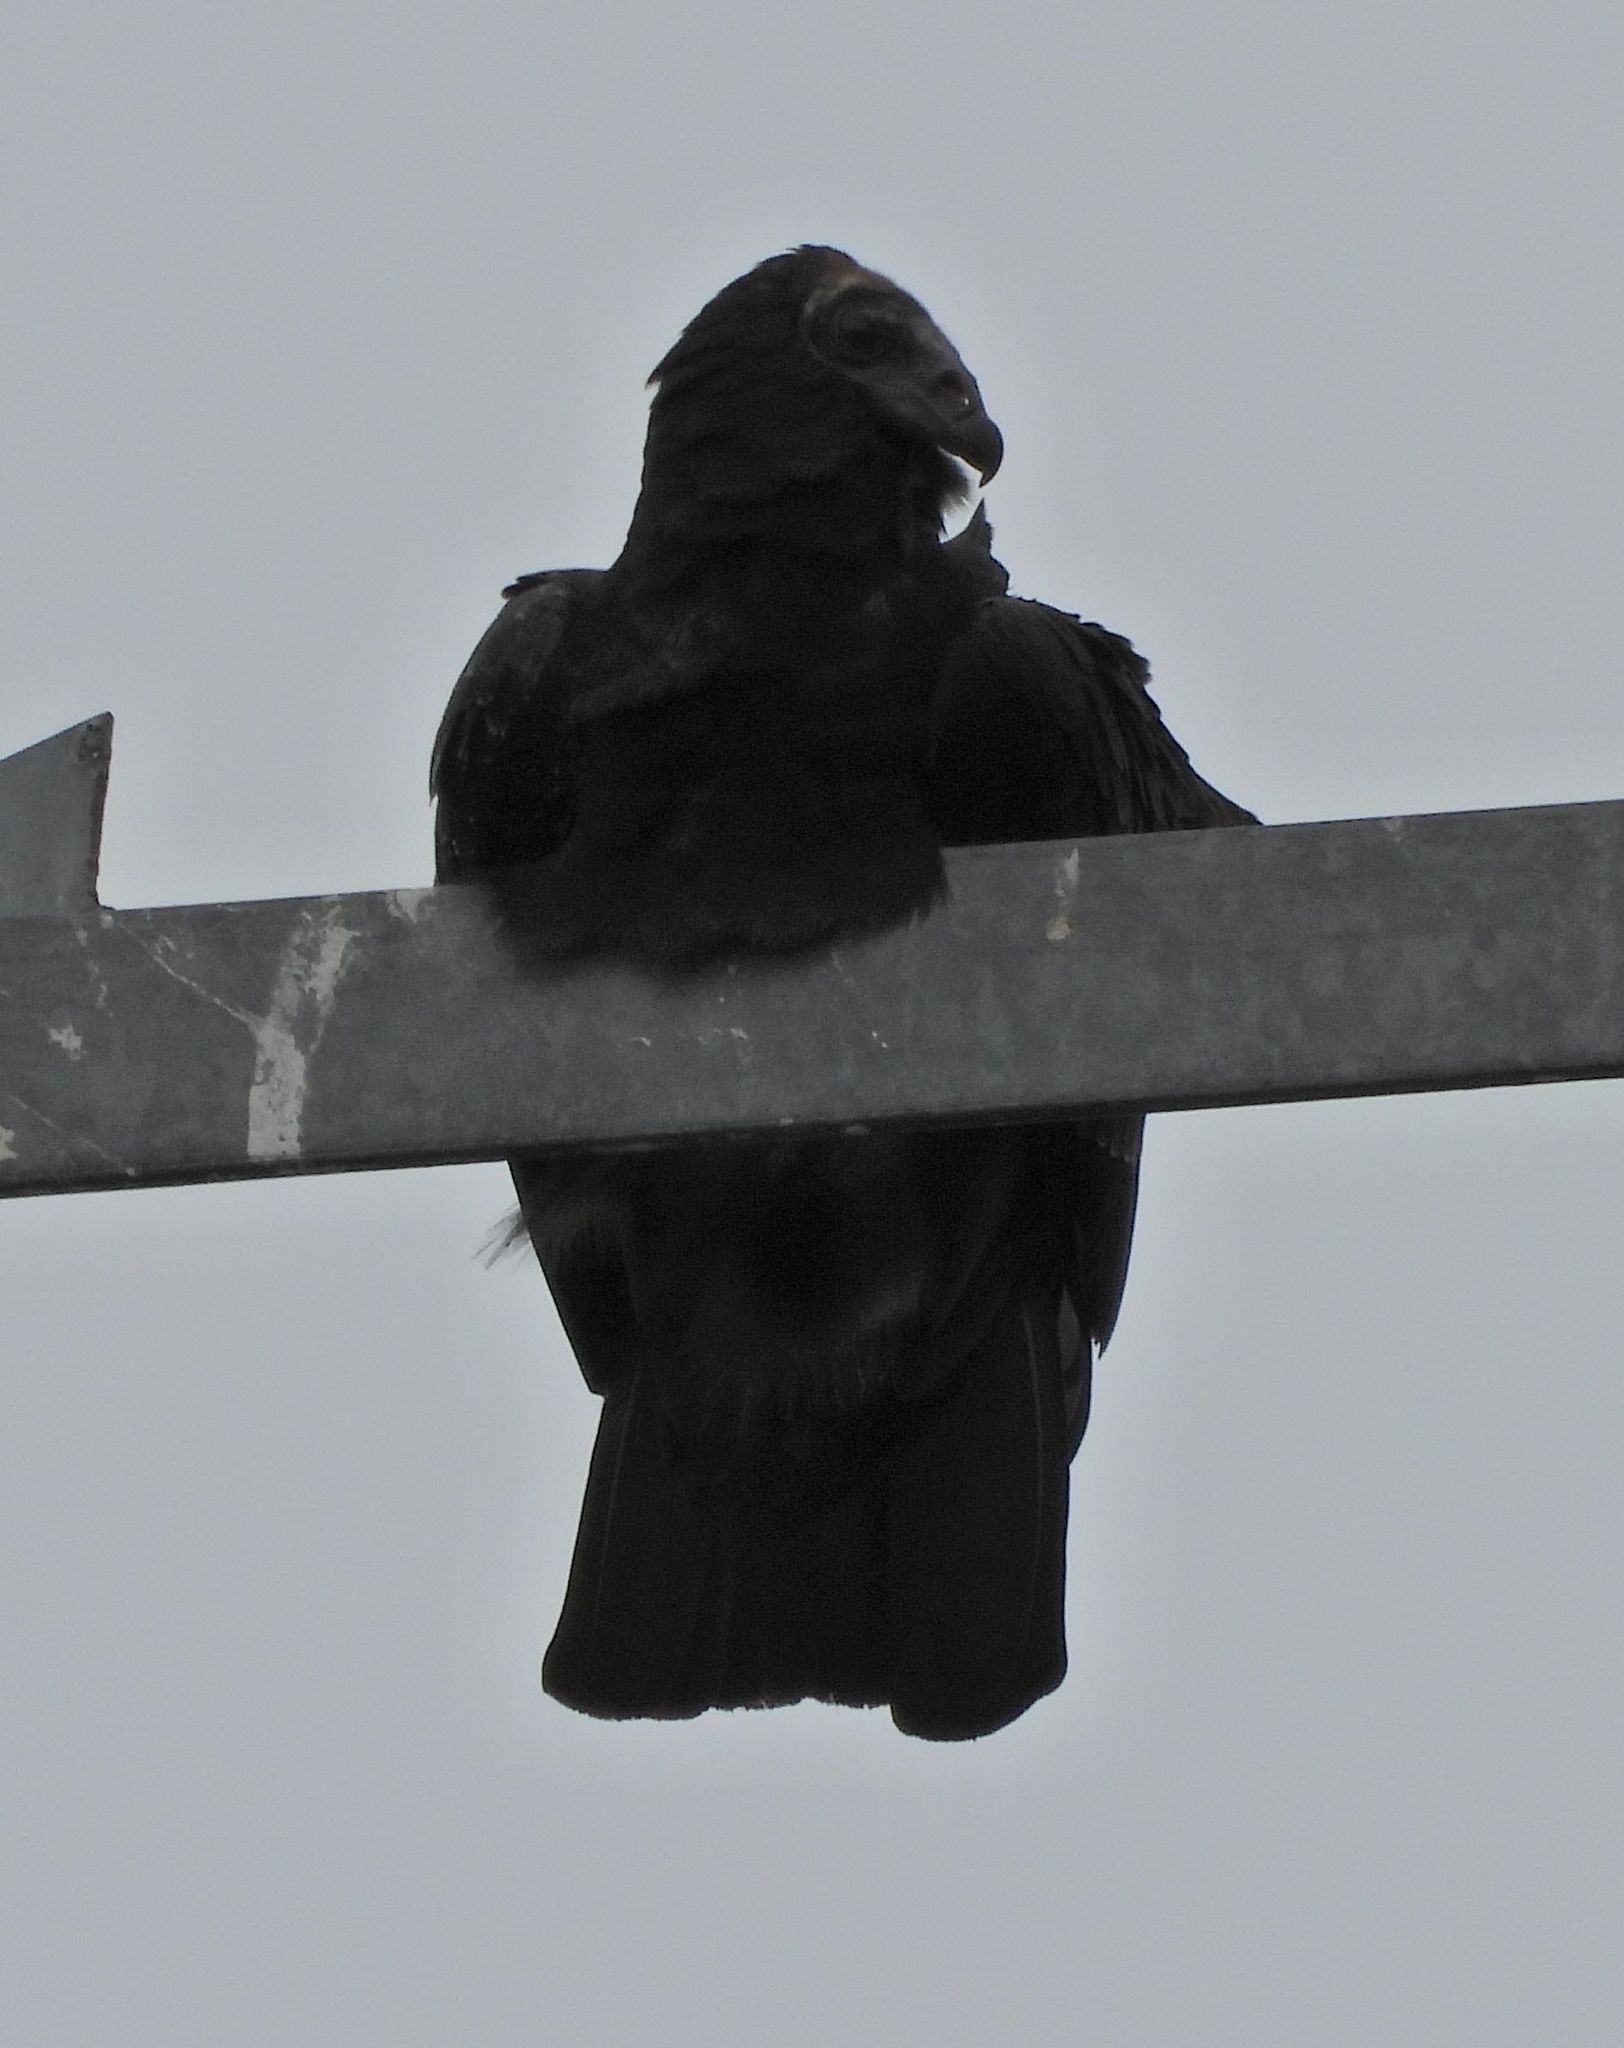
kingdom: Animalia
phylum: Chordata
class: Aves
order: Accipitriformes
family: Cathartidae
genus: Cathartes
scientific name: Cathartes aura
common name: Turkey vulture
